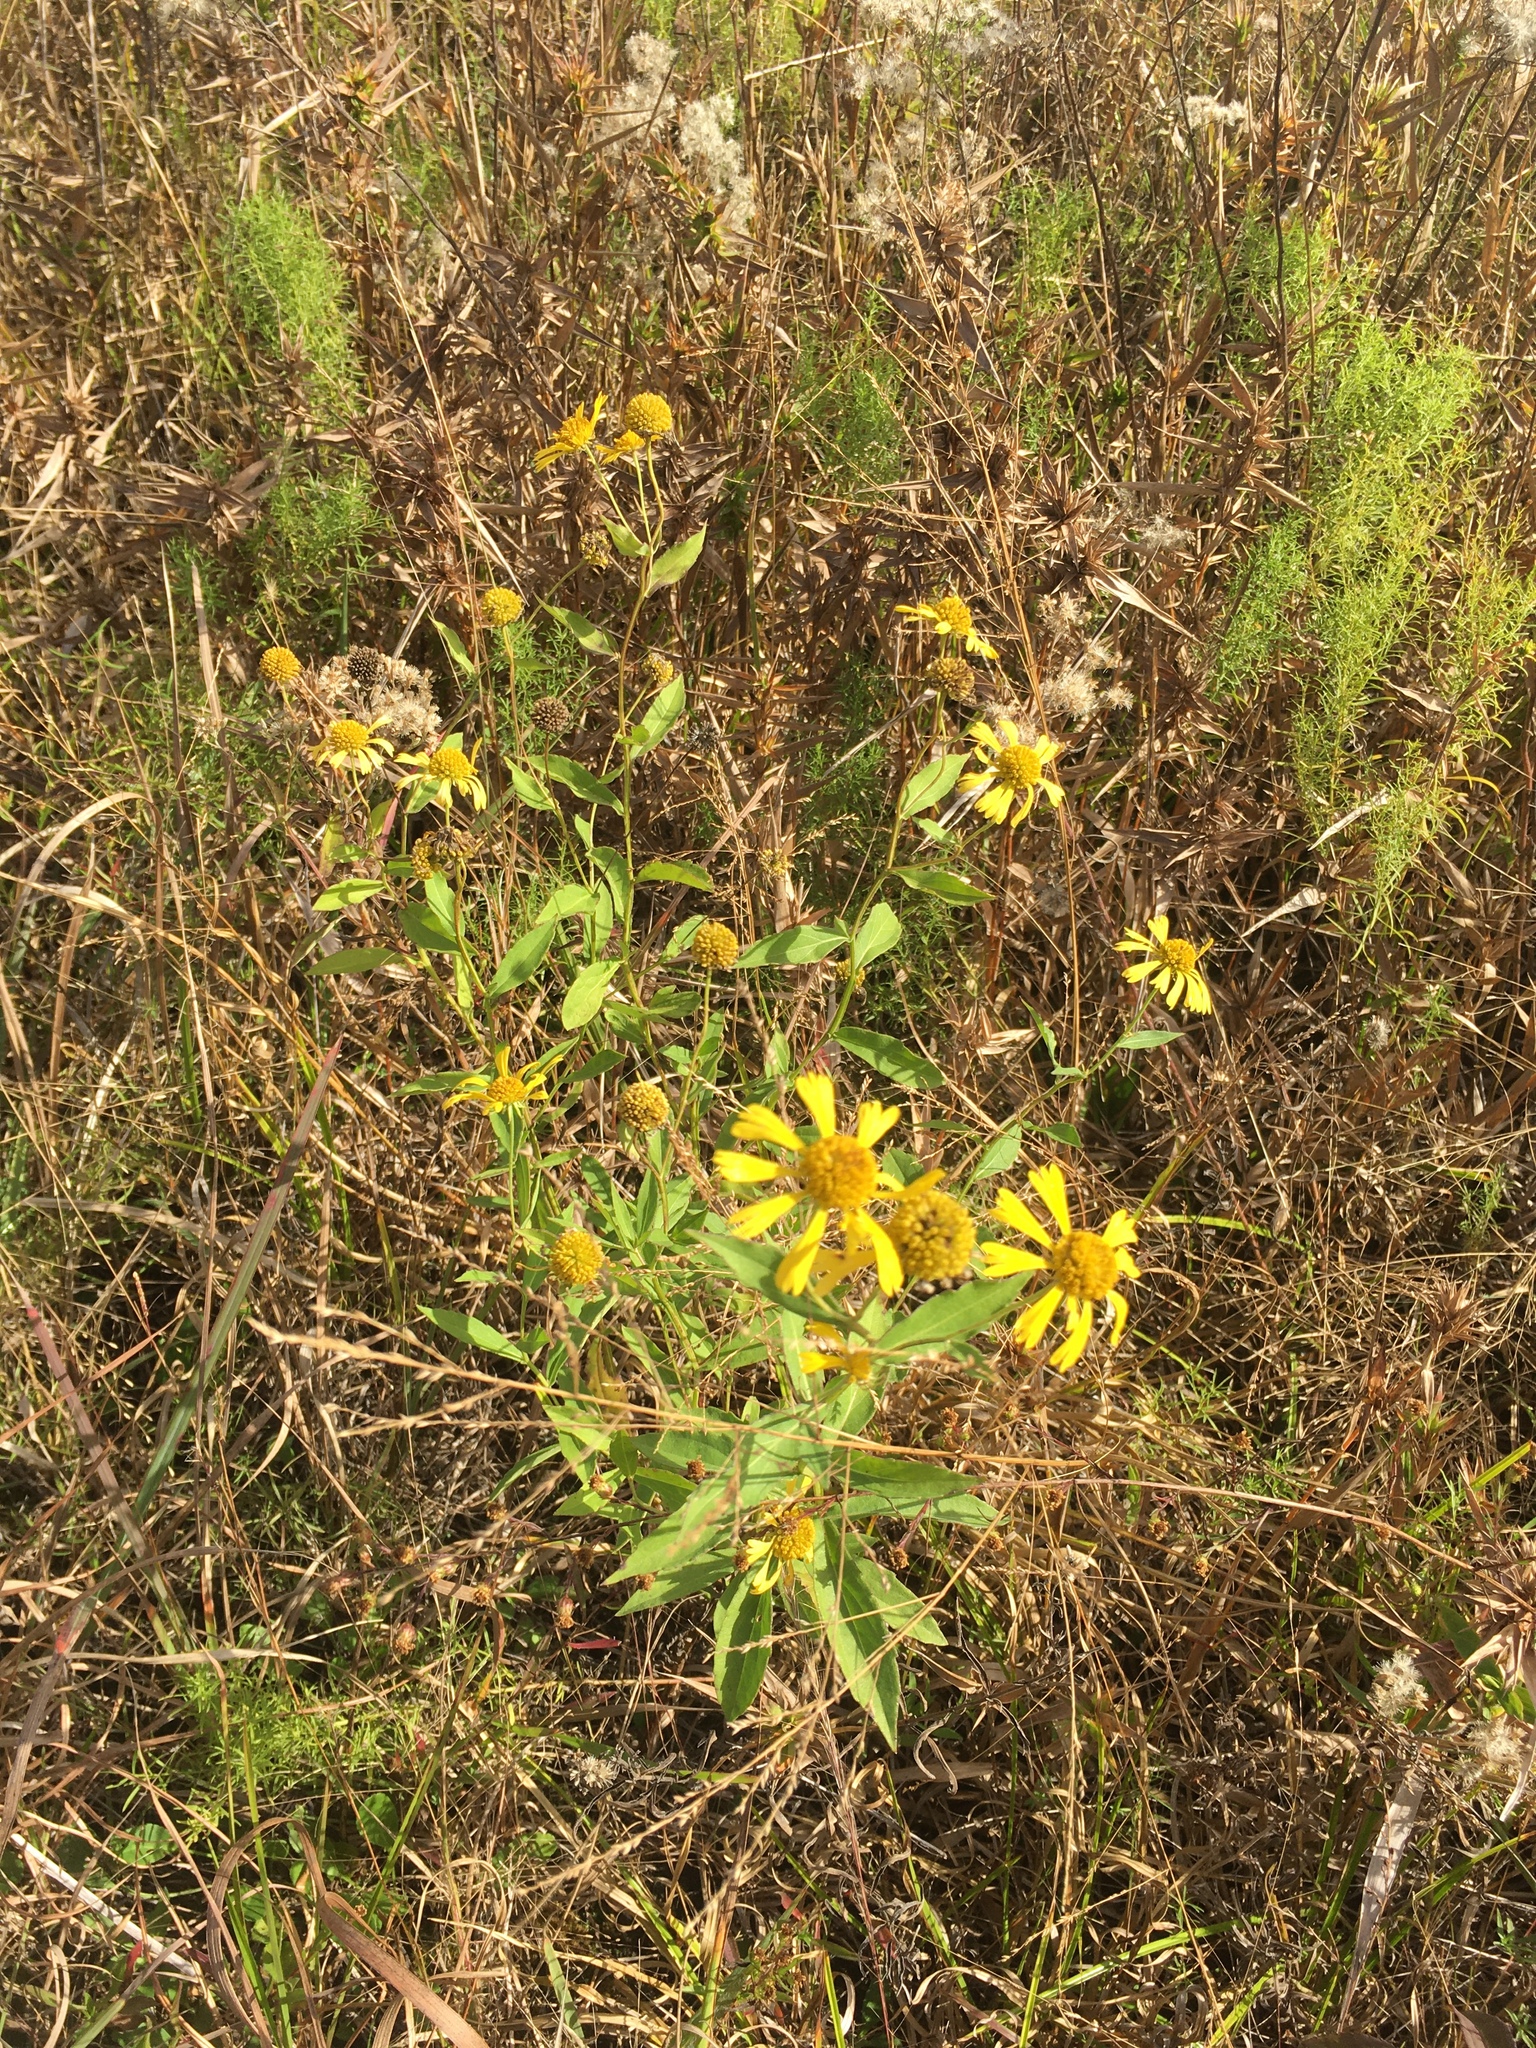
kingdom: Plantae
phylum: Tracheophyta
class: Magnoliopsida
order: Asterales
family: Asteraceae
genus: Helenium
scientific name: Helenium autumnale
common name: Sneezeweed
